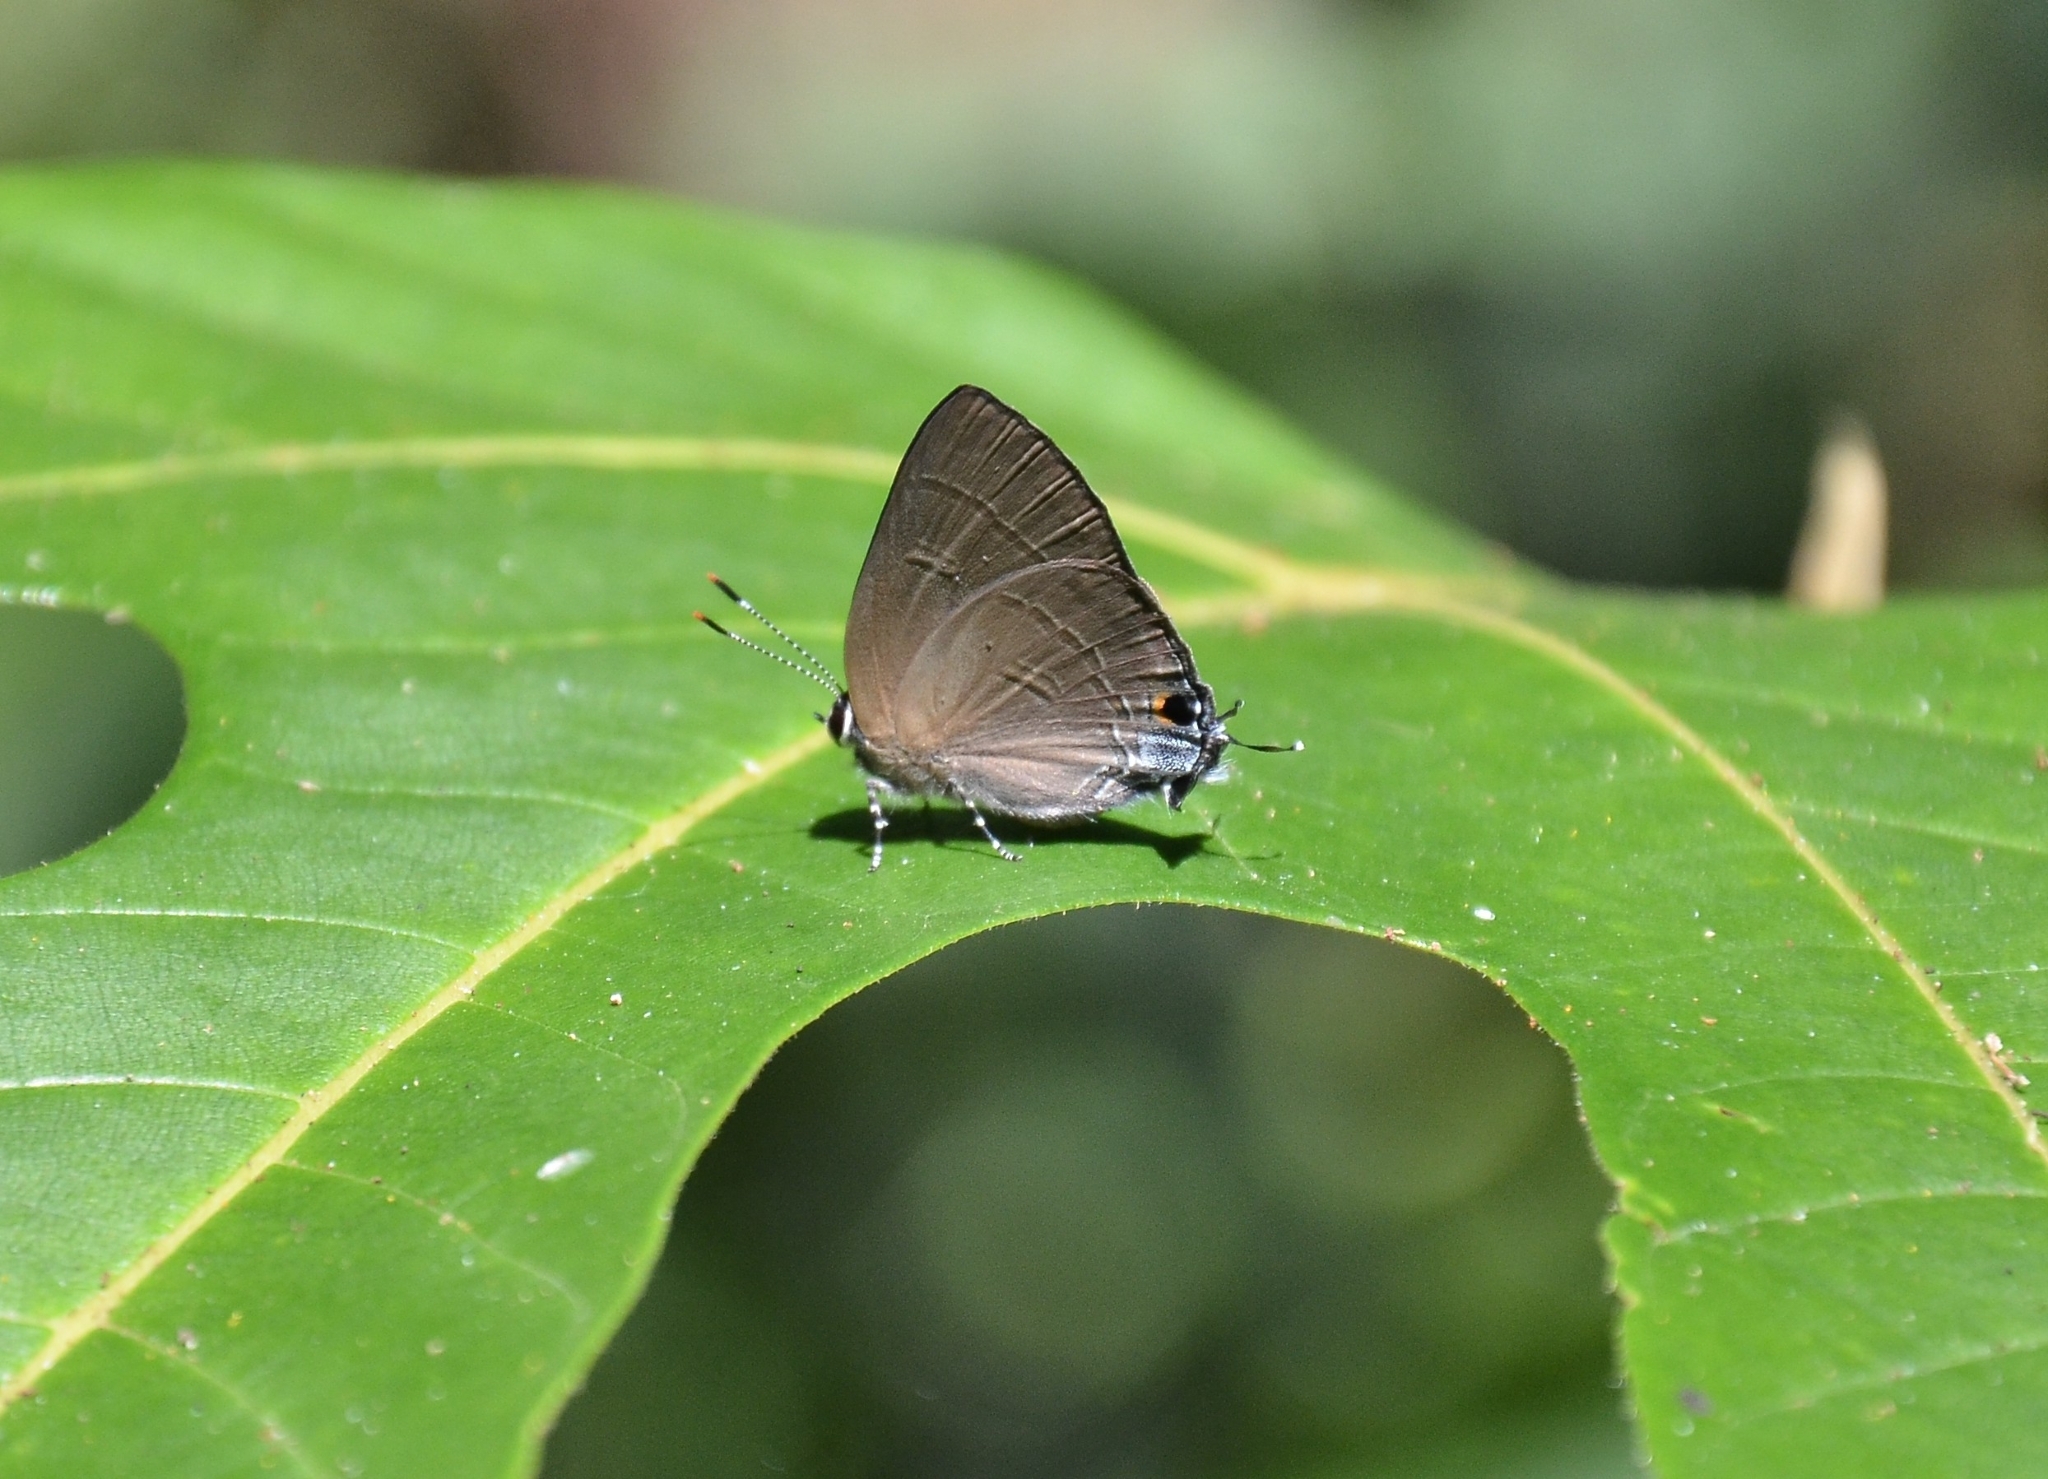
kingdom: Animalia
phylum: Arthropoda
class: Insecta
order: Lepidoptera
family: Lycaenidae
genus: Rapala
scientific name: Rapala manea
